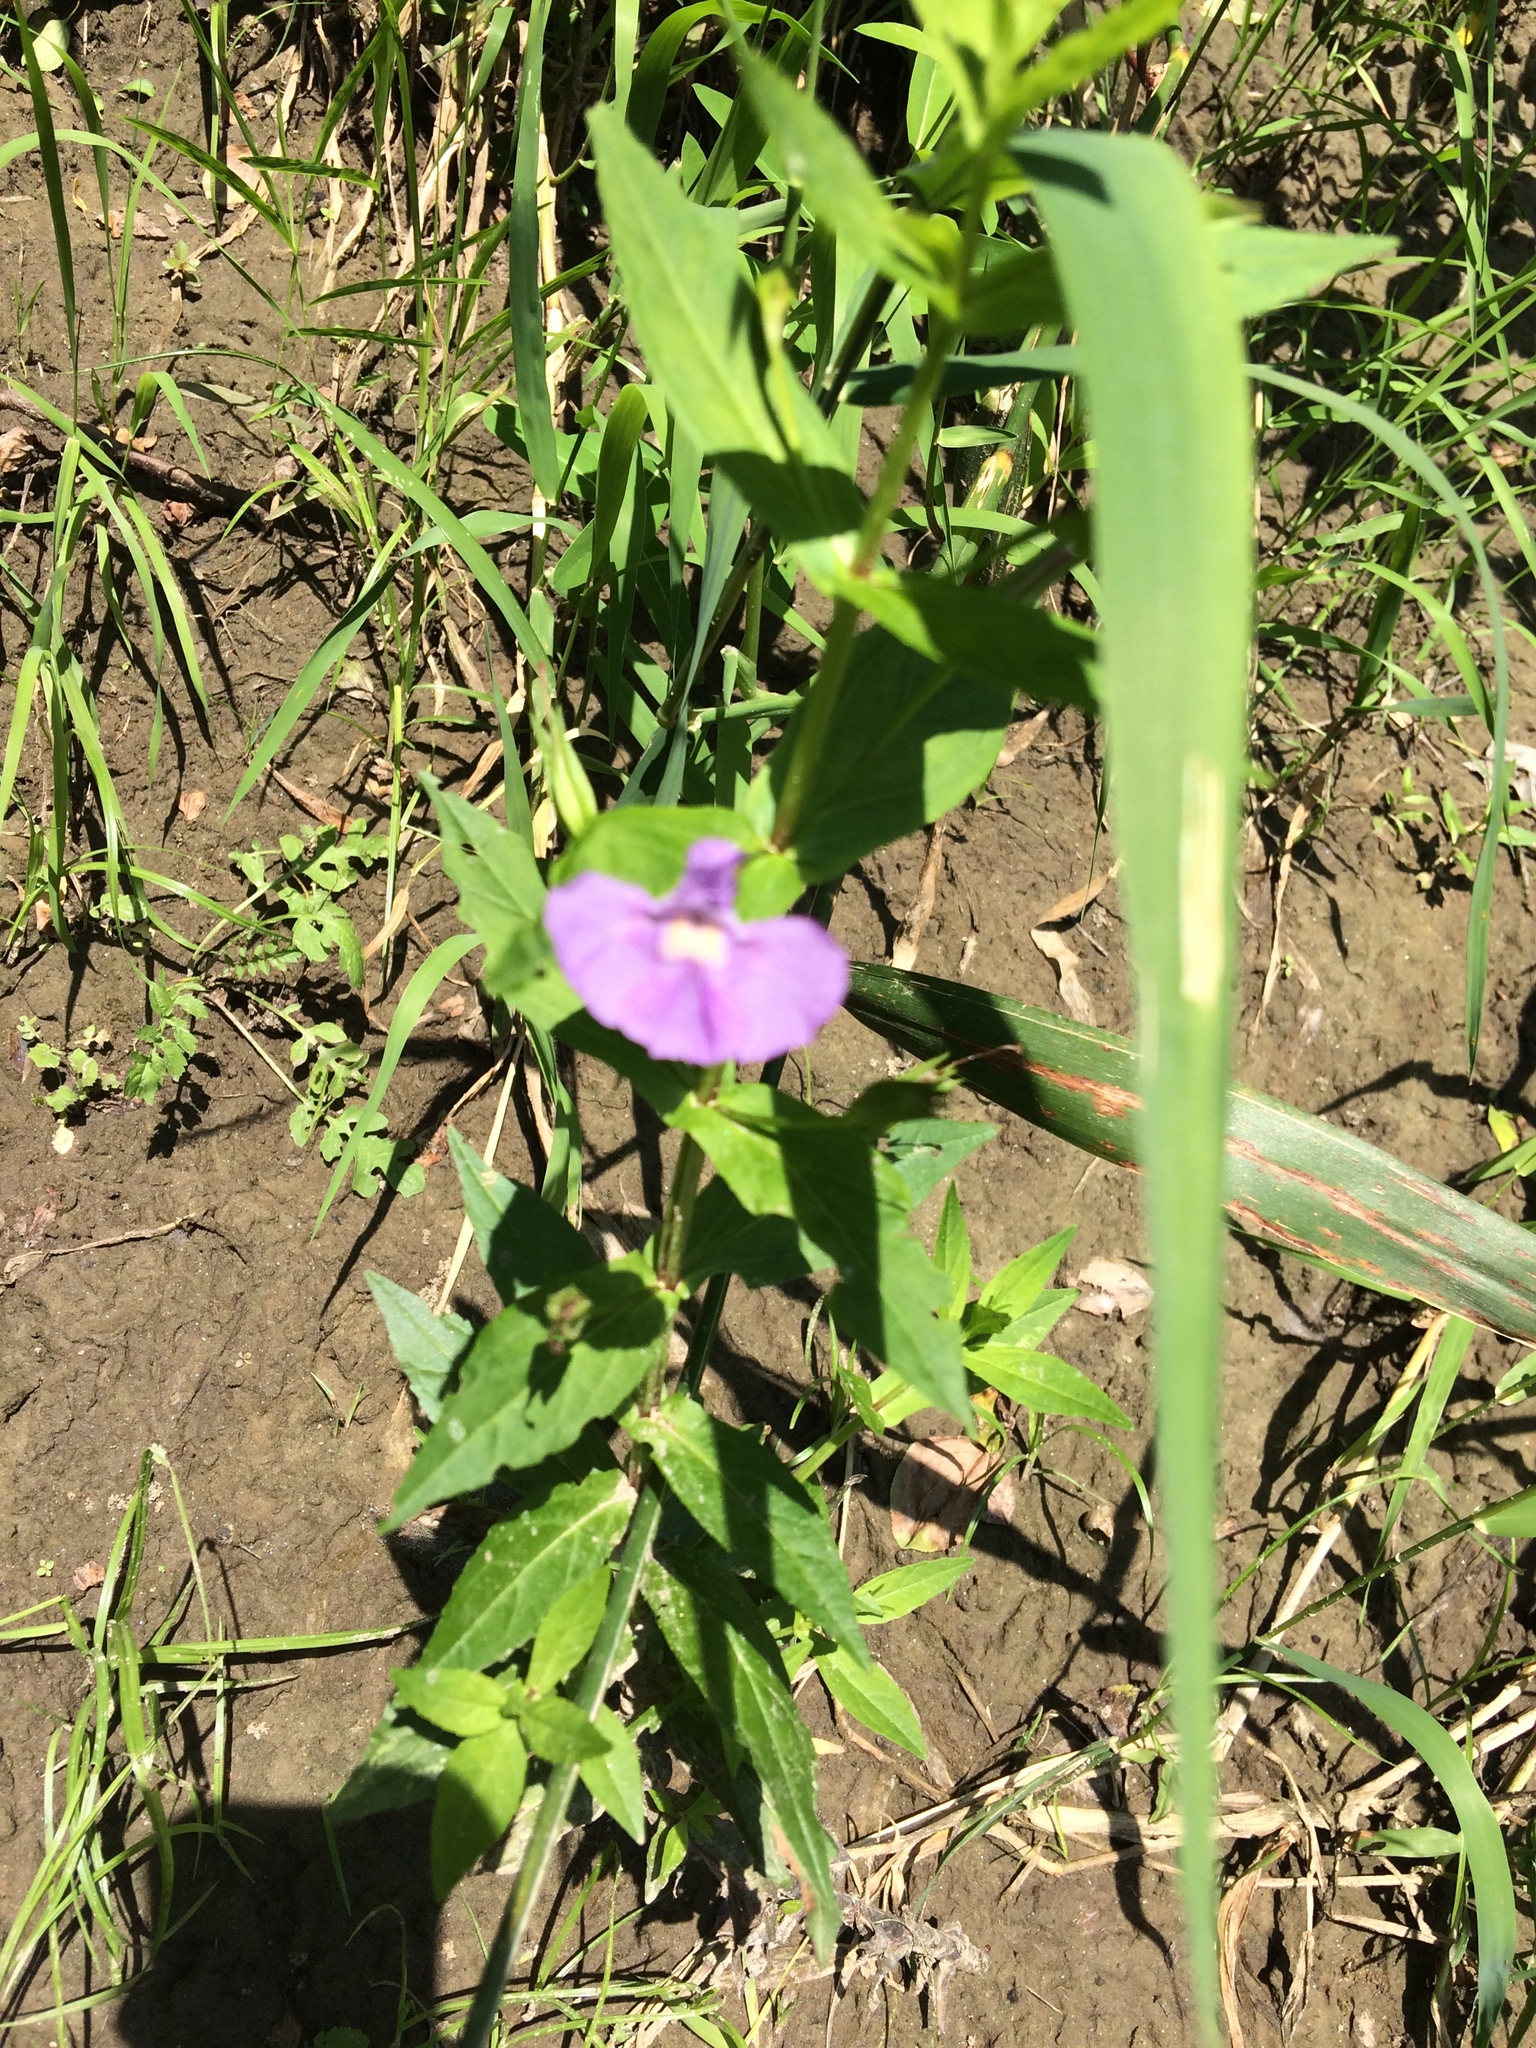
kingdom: Plantae
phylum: Tracheophyta
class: Magnoliopsida
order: Lamiales
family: Phrymaceae
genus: Mimulus
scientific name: Mimulus ringens
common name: Allegheny monkeyflower
